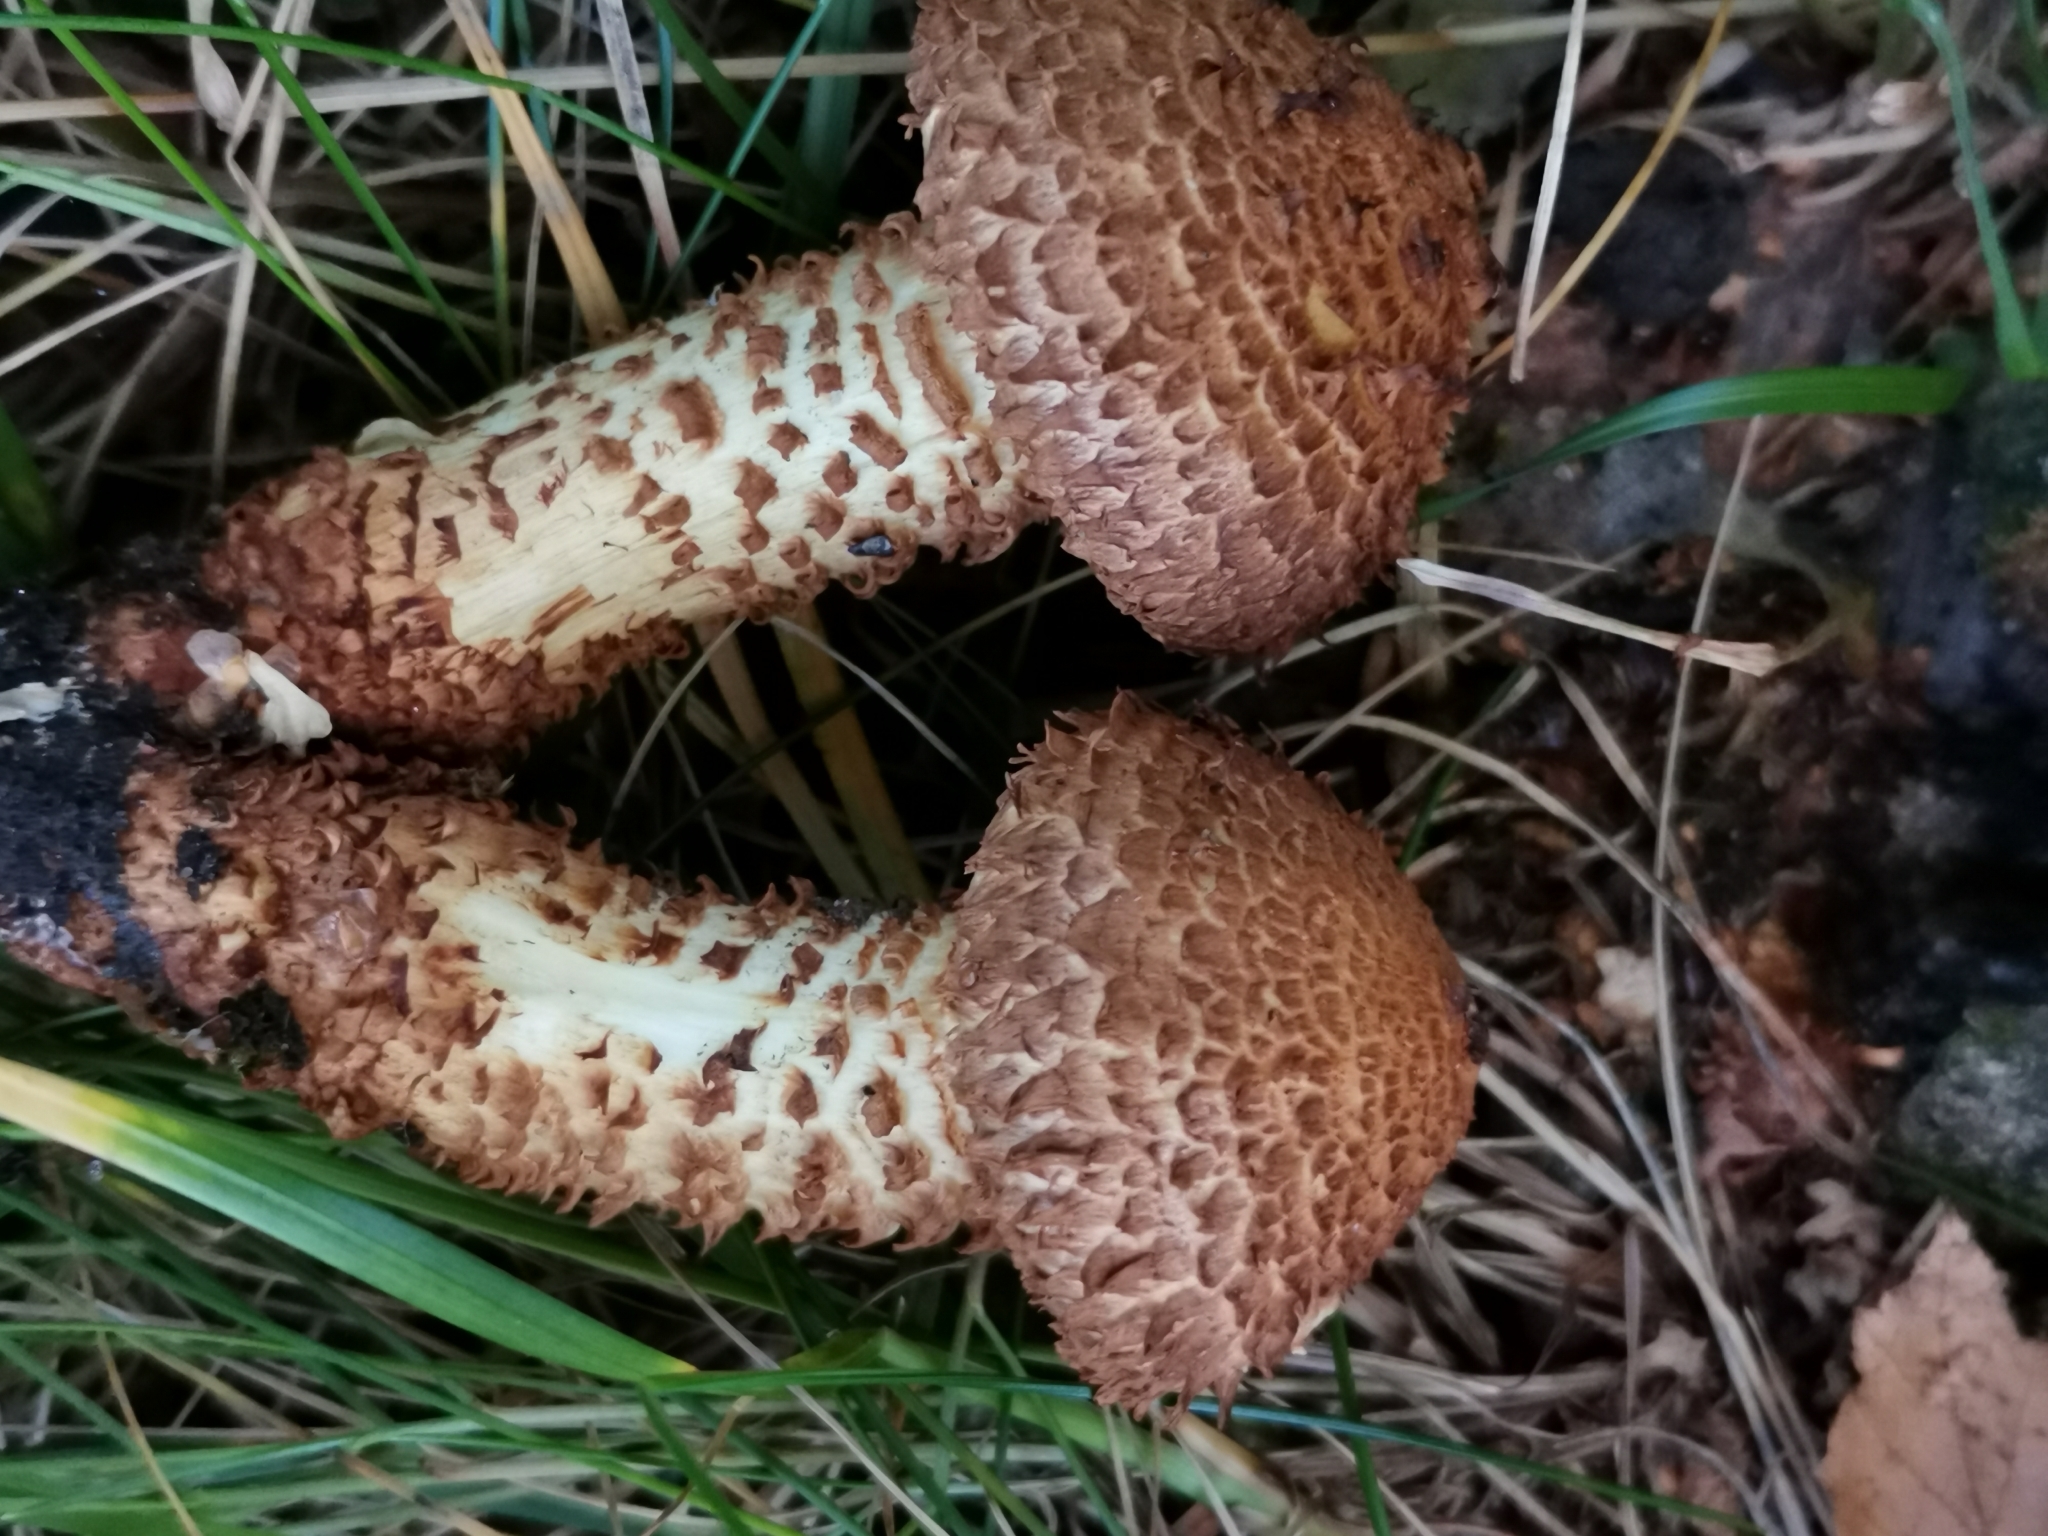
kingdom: Fungi
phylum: Basidiomycota
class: Agaricomycetes
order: Agaricales
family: Strophariaceae
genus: Pholiota
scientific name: Pholiota squarrosa
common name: Shaggy pholiota
